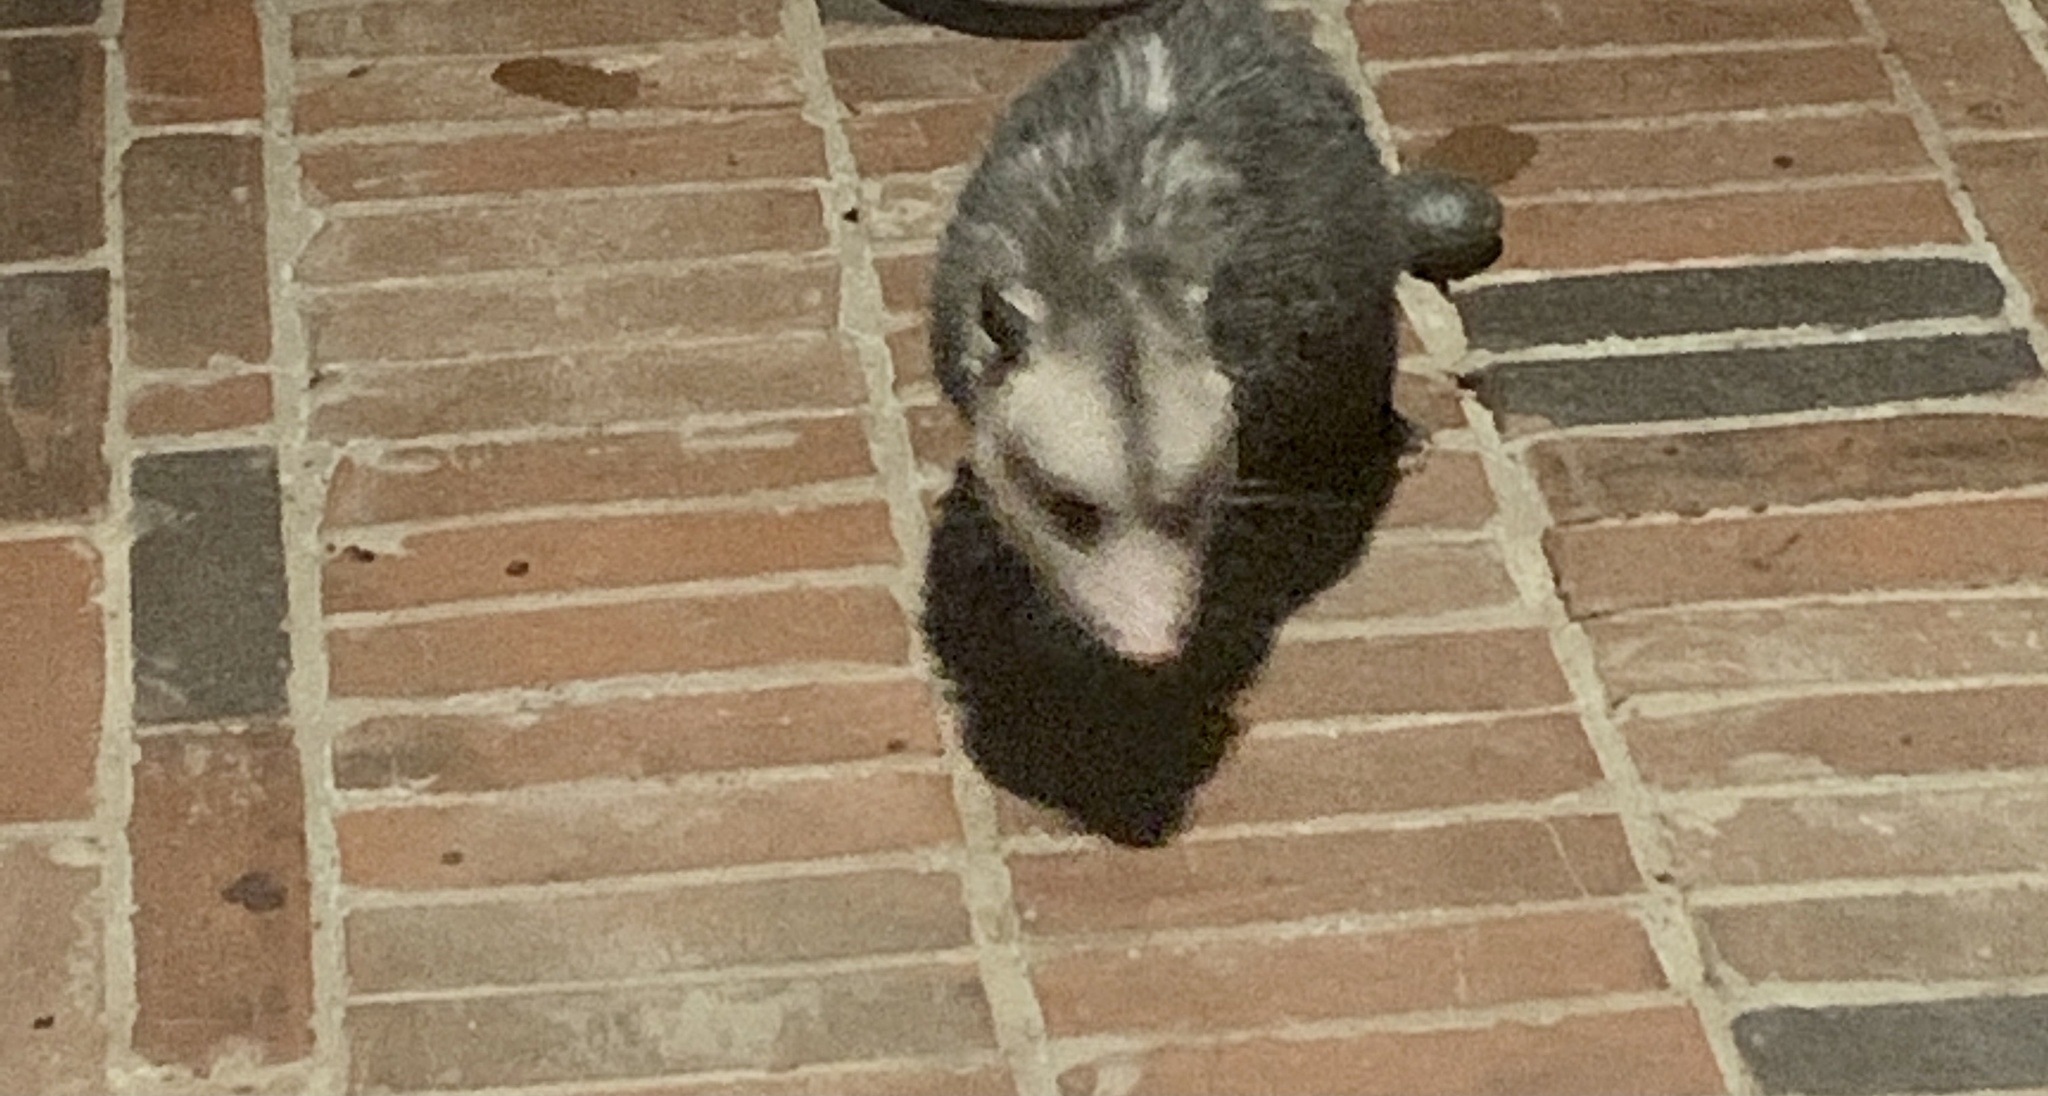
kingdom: Animalia
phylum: Chordata
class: Mammalia
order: Didelphimorphia
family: Didelphidae
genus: Didelphis
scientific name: Didelphis virginiana
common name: Virginia opossum
